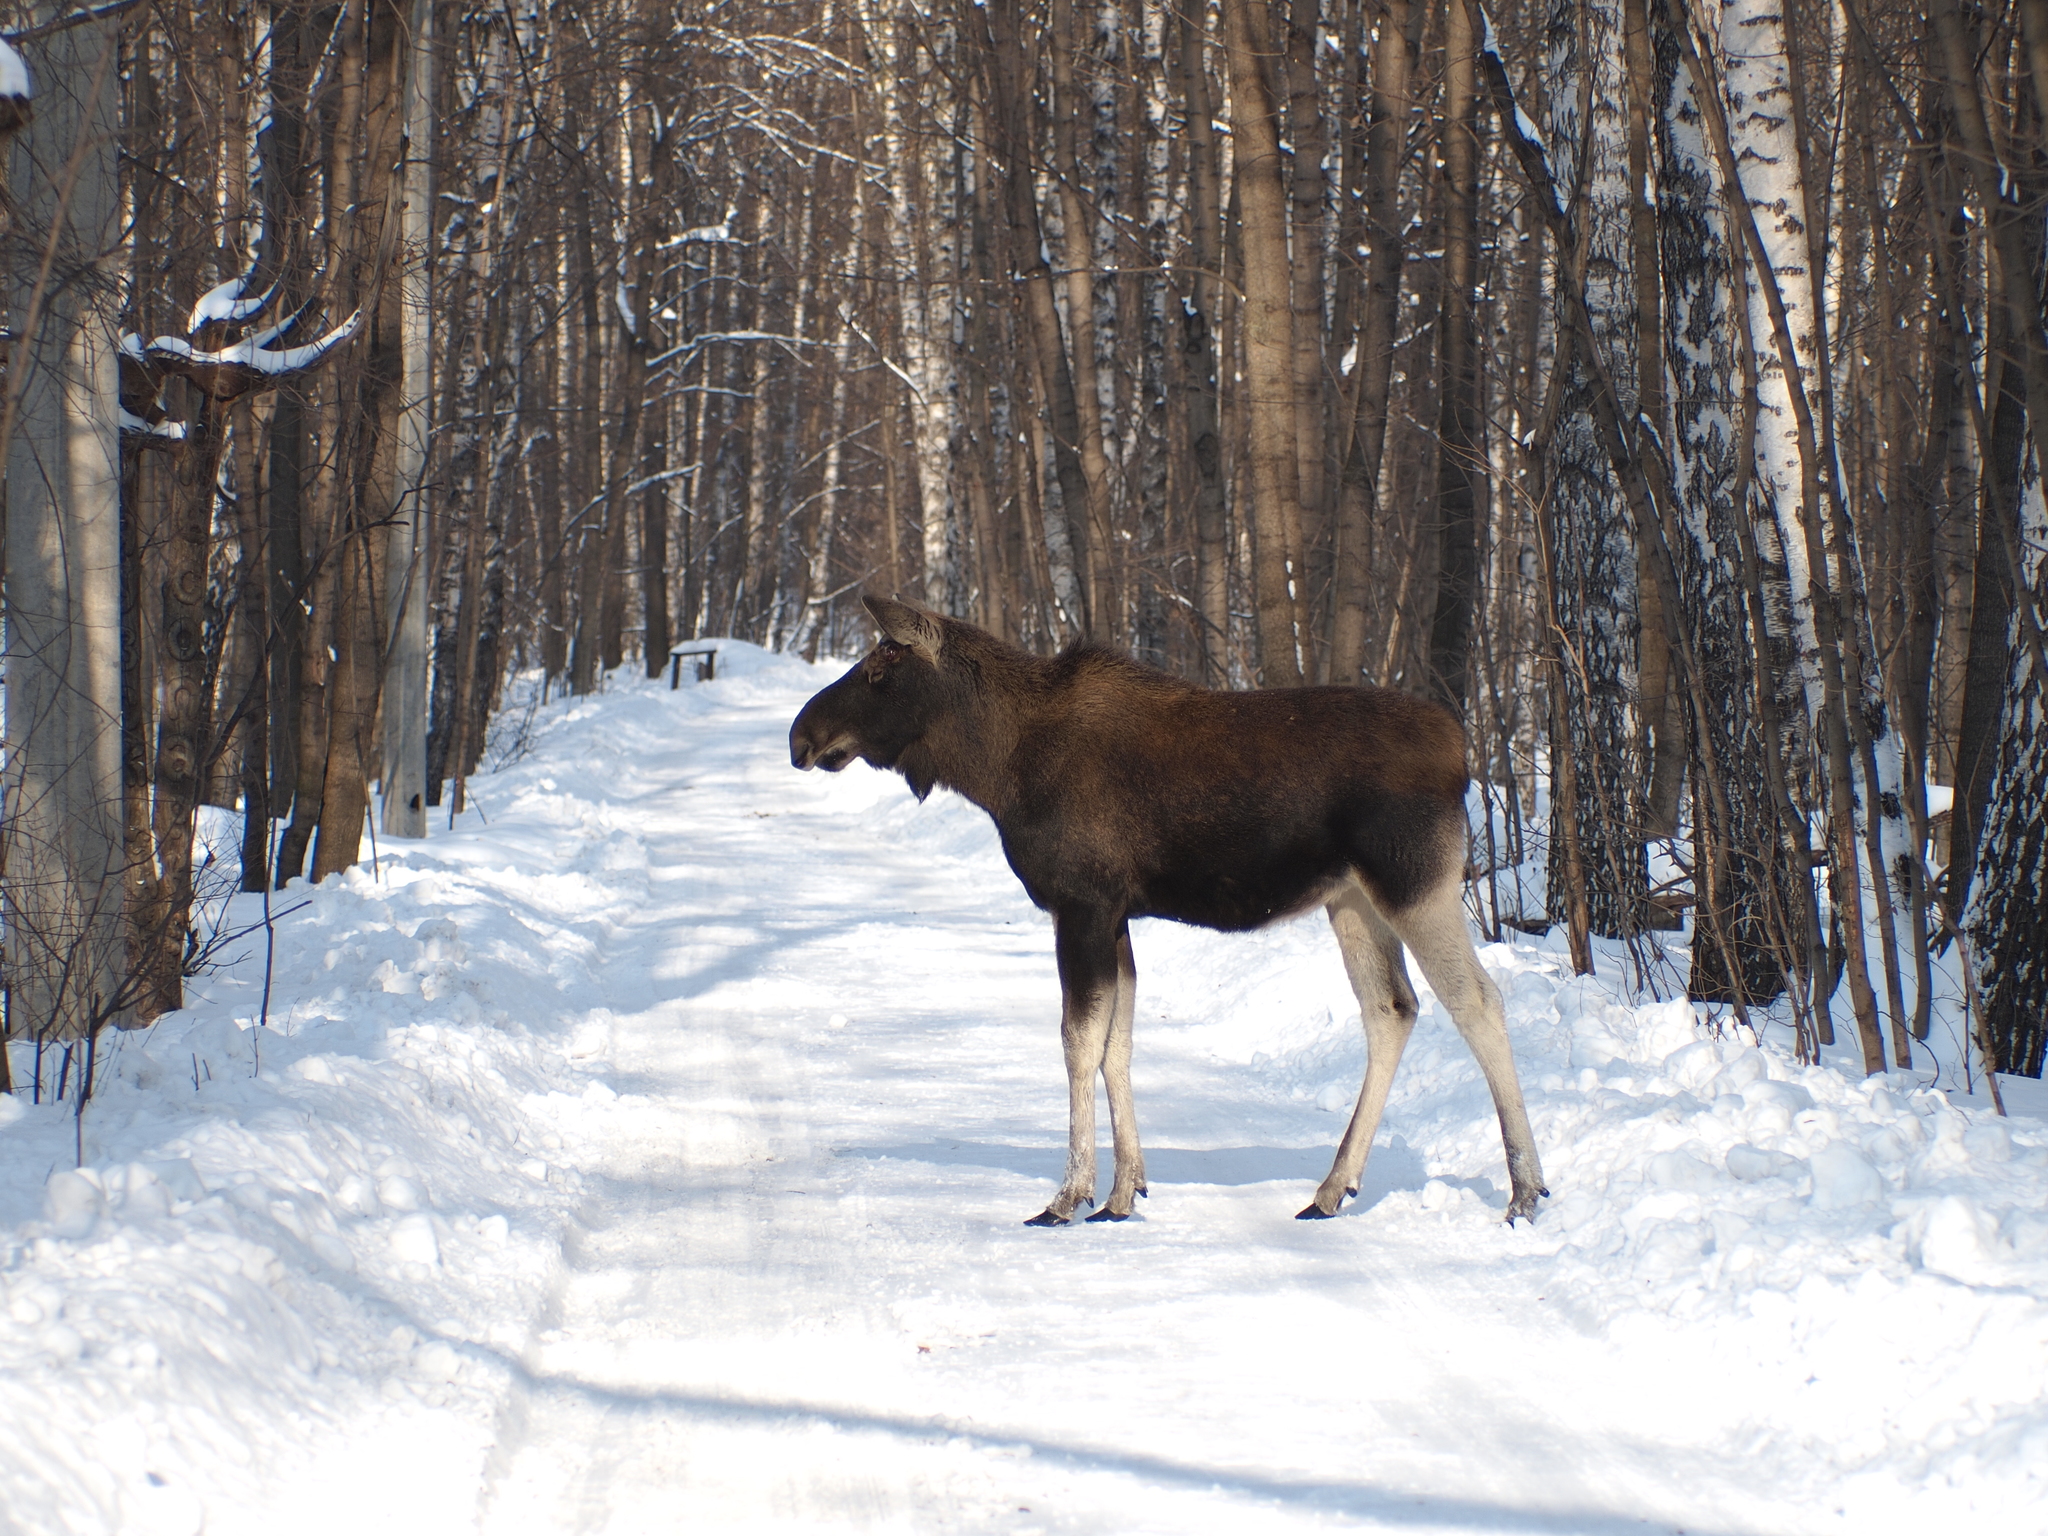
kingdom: Animalia
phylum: Chordata
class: Mammalia
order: Artiodactyla
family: Cervidae
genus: Alces
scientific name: Alces alces
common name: Moose
